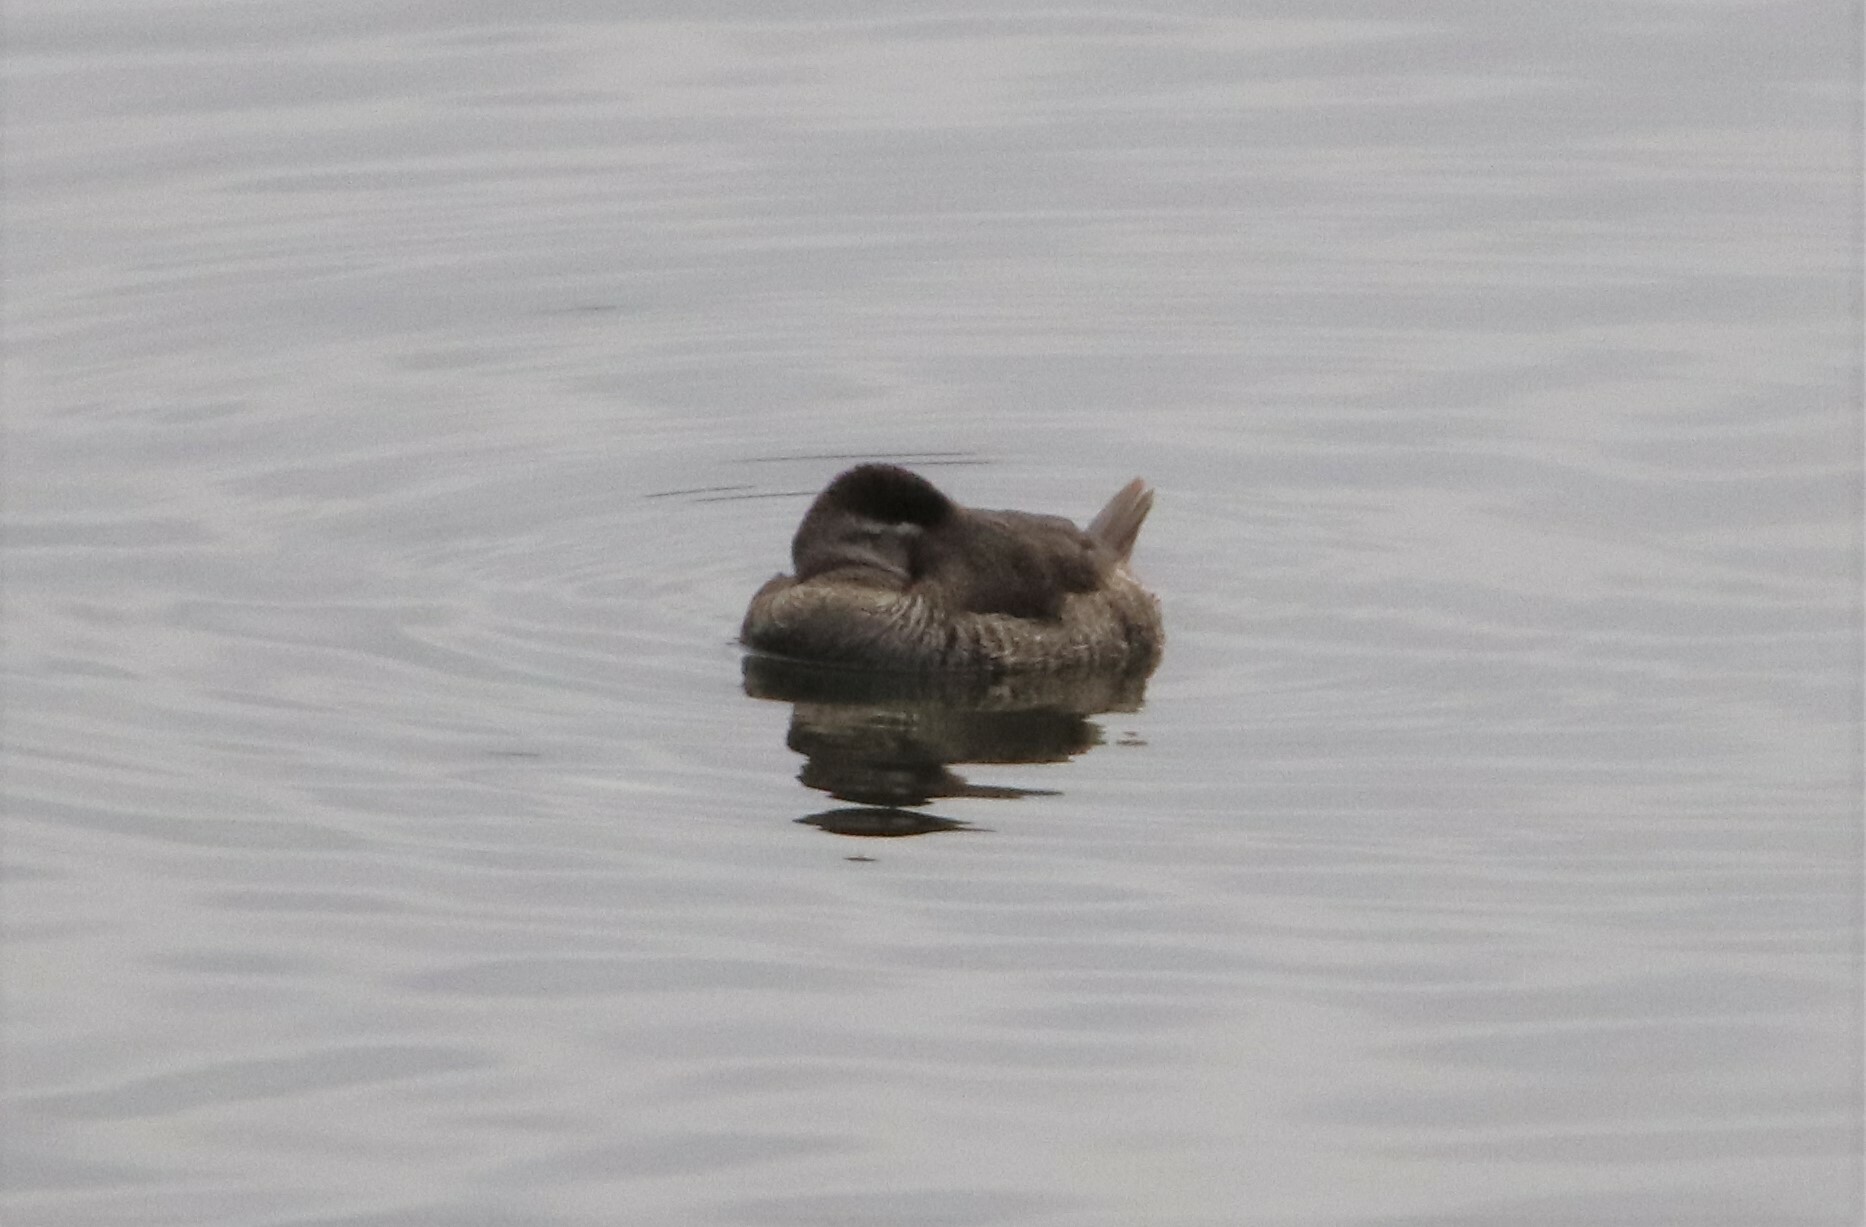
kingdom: Animalia
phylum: Chordata
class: Aves
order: Anseriformes
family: Anatidae
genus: Oxyura
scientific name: Oxyura jamaicensis
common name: Ruddy duck
